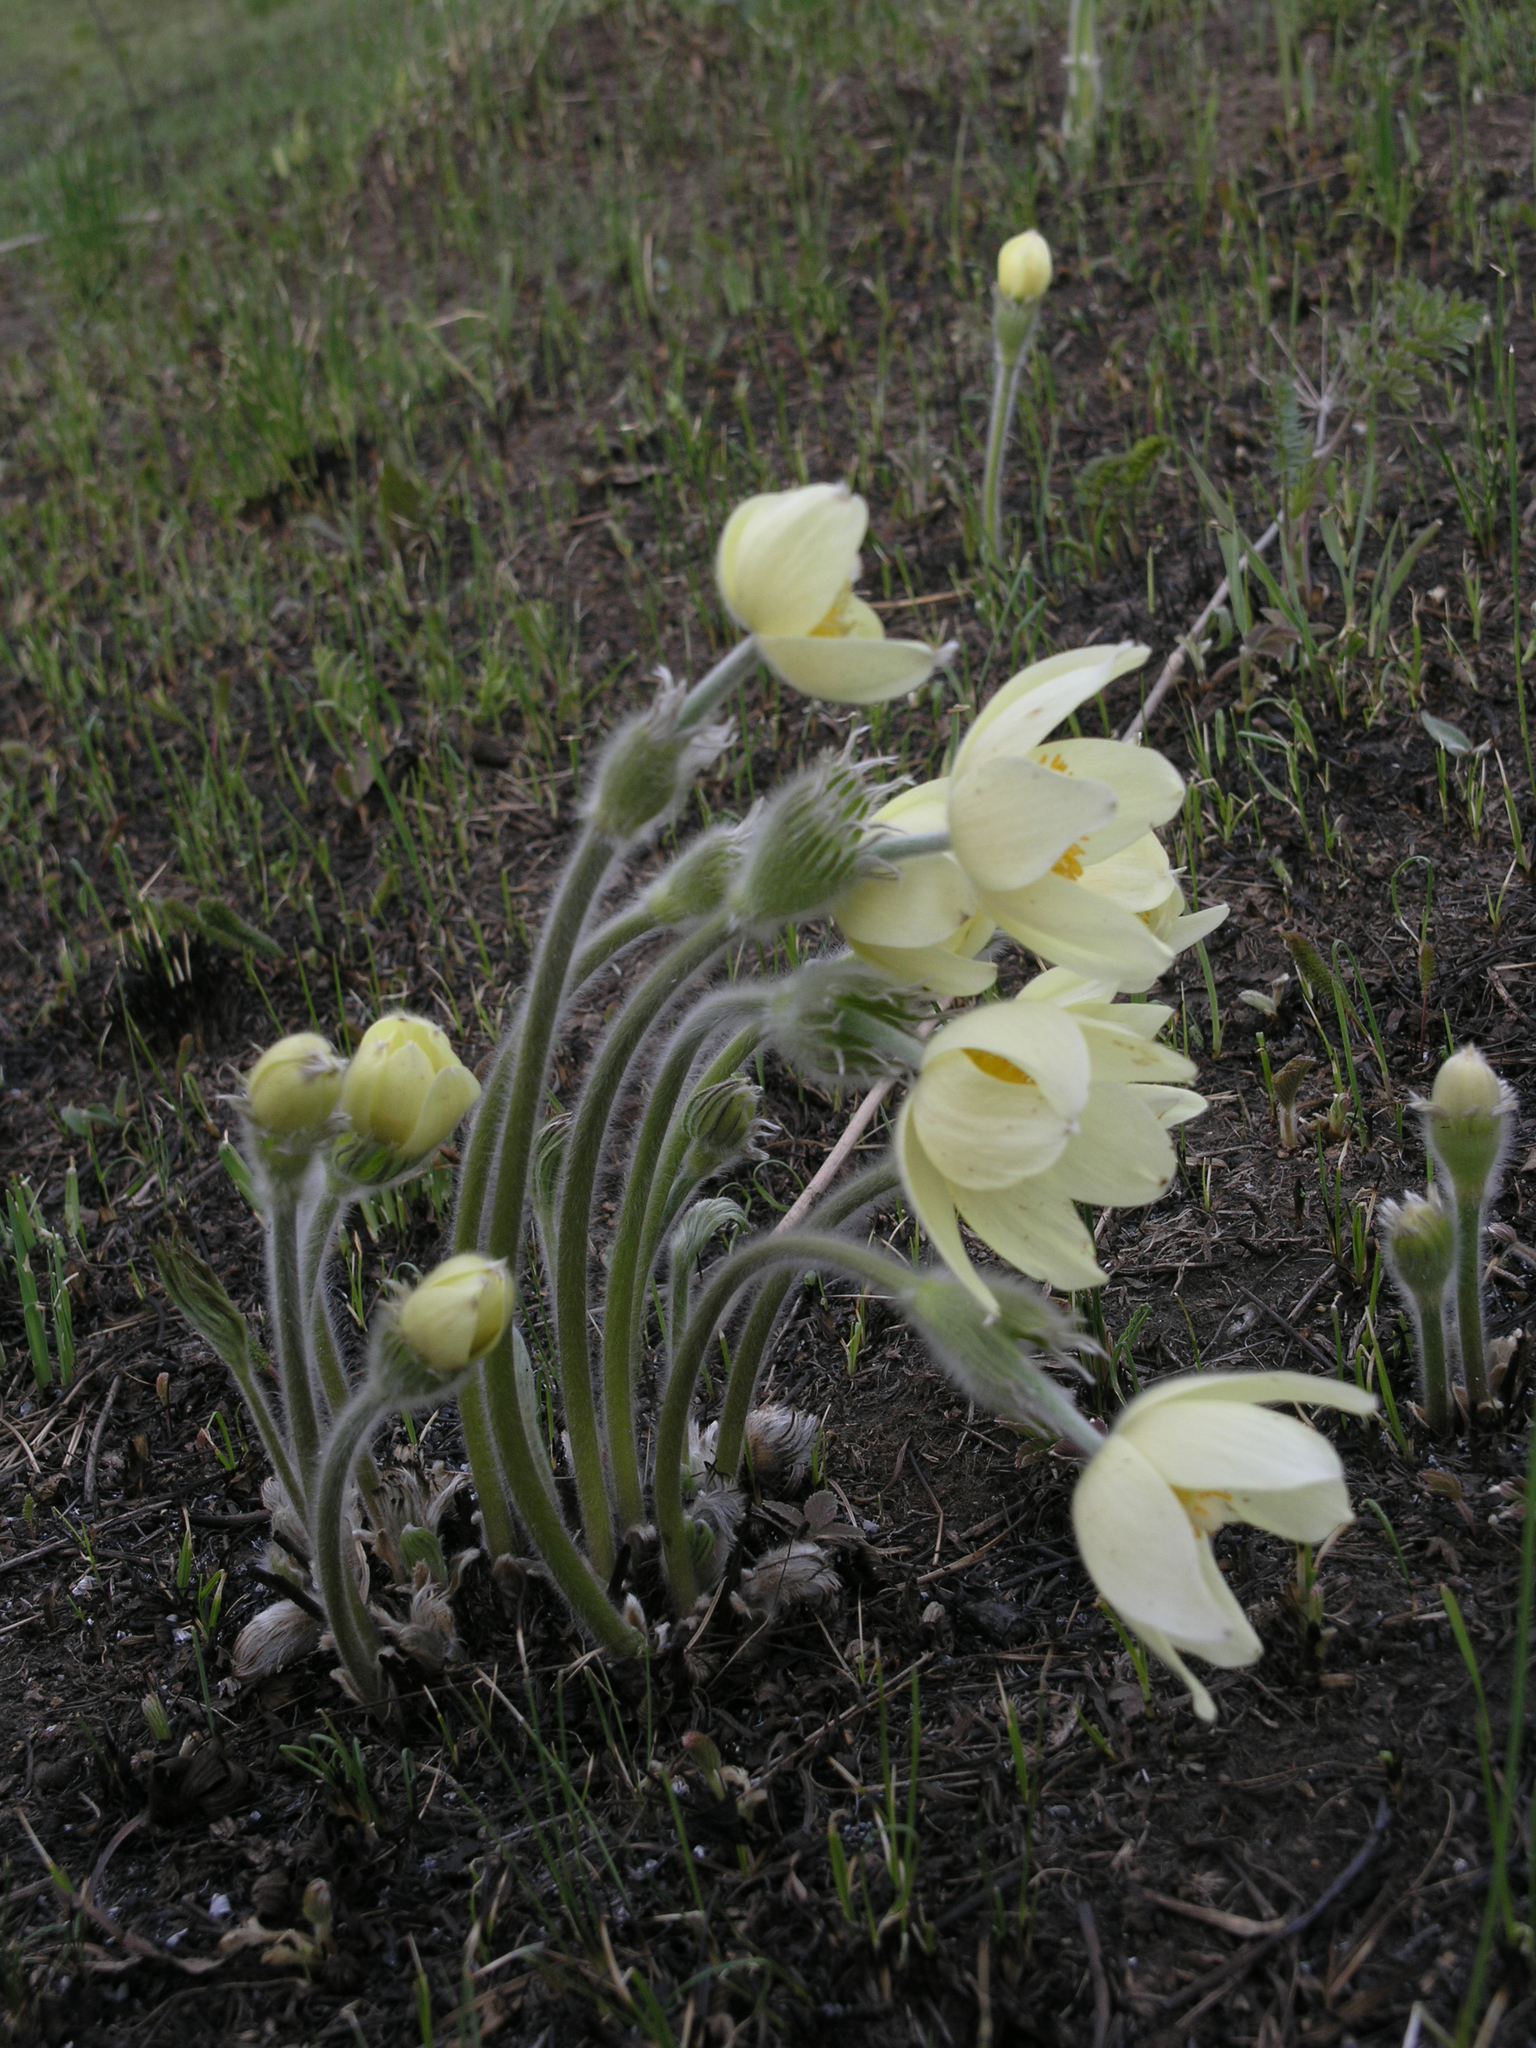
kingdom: Plantae
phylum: Tracheophyta
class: Magnoliopsida
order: Ranunculales
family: Ranunculaceae
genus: Pulsatilla
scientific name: Pulsatilla patens
